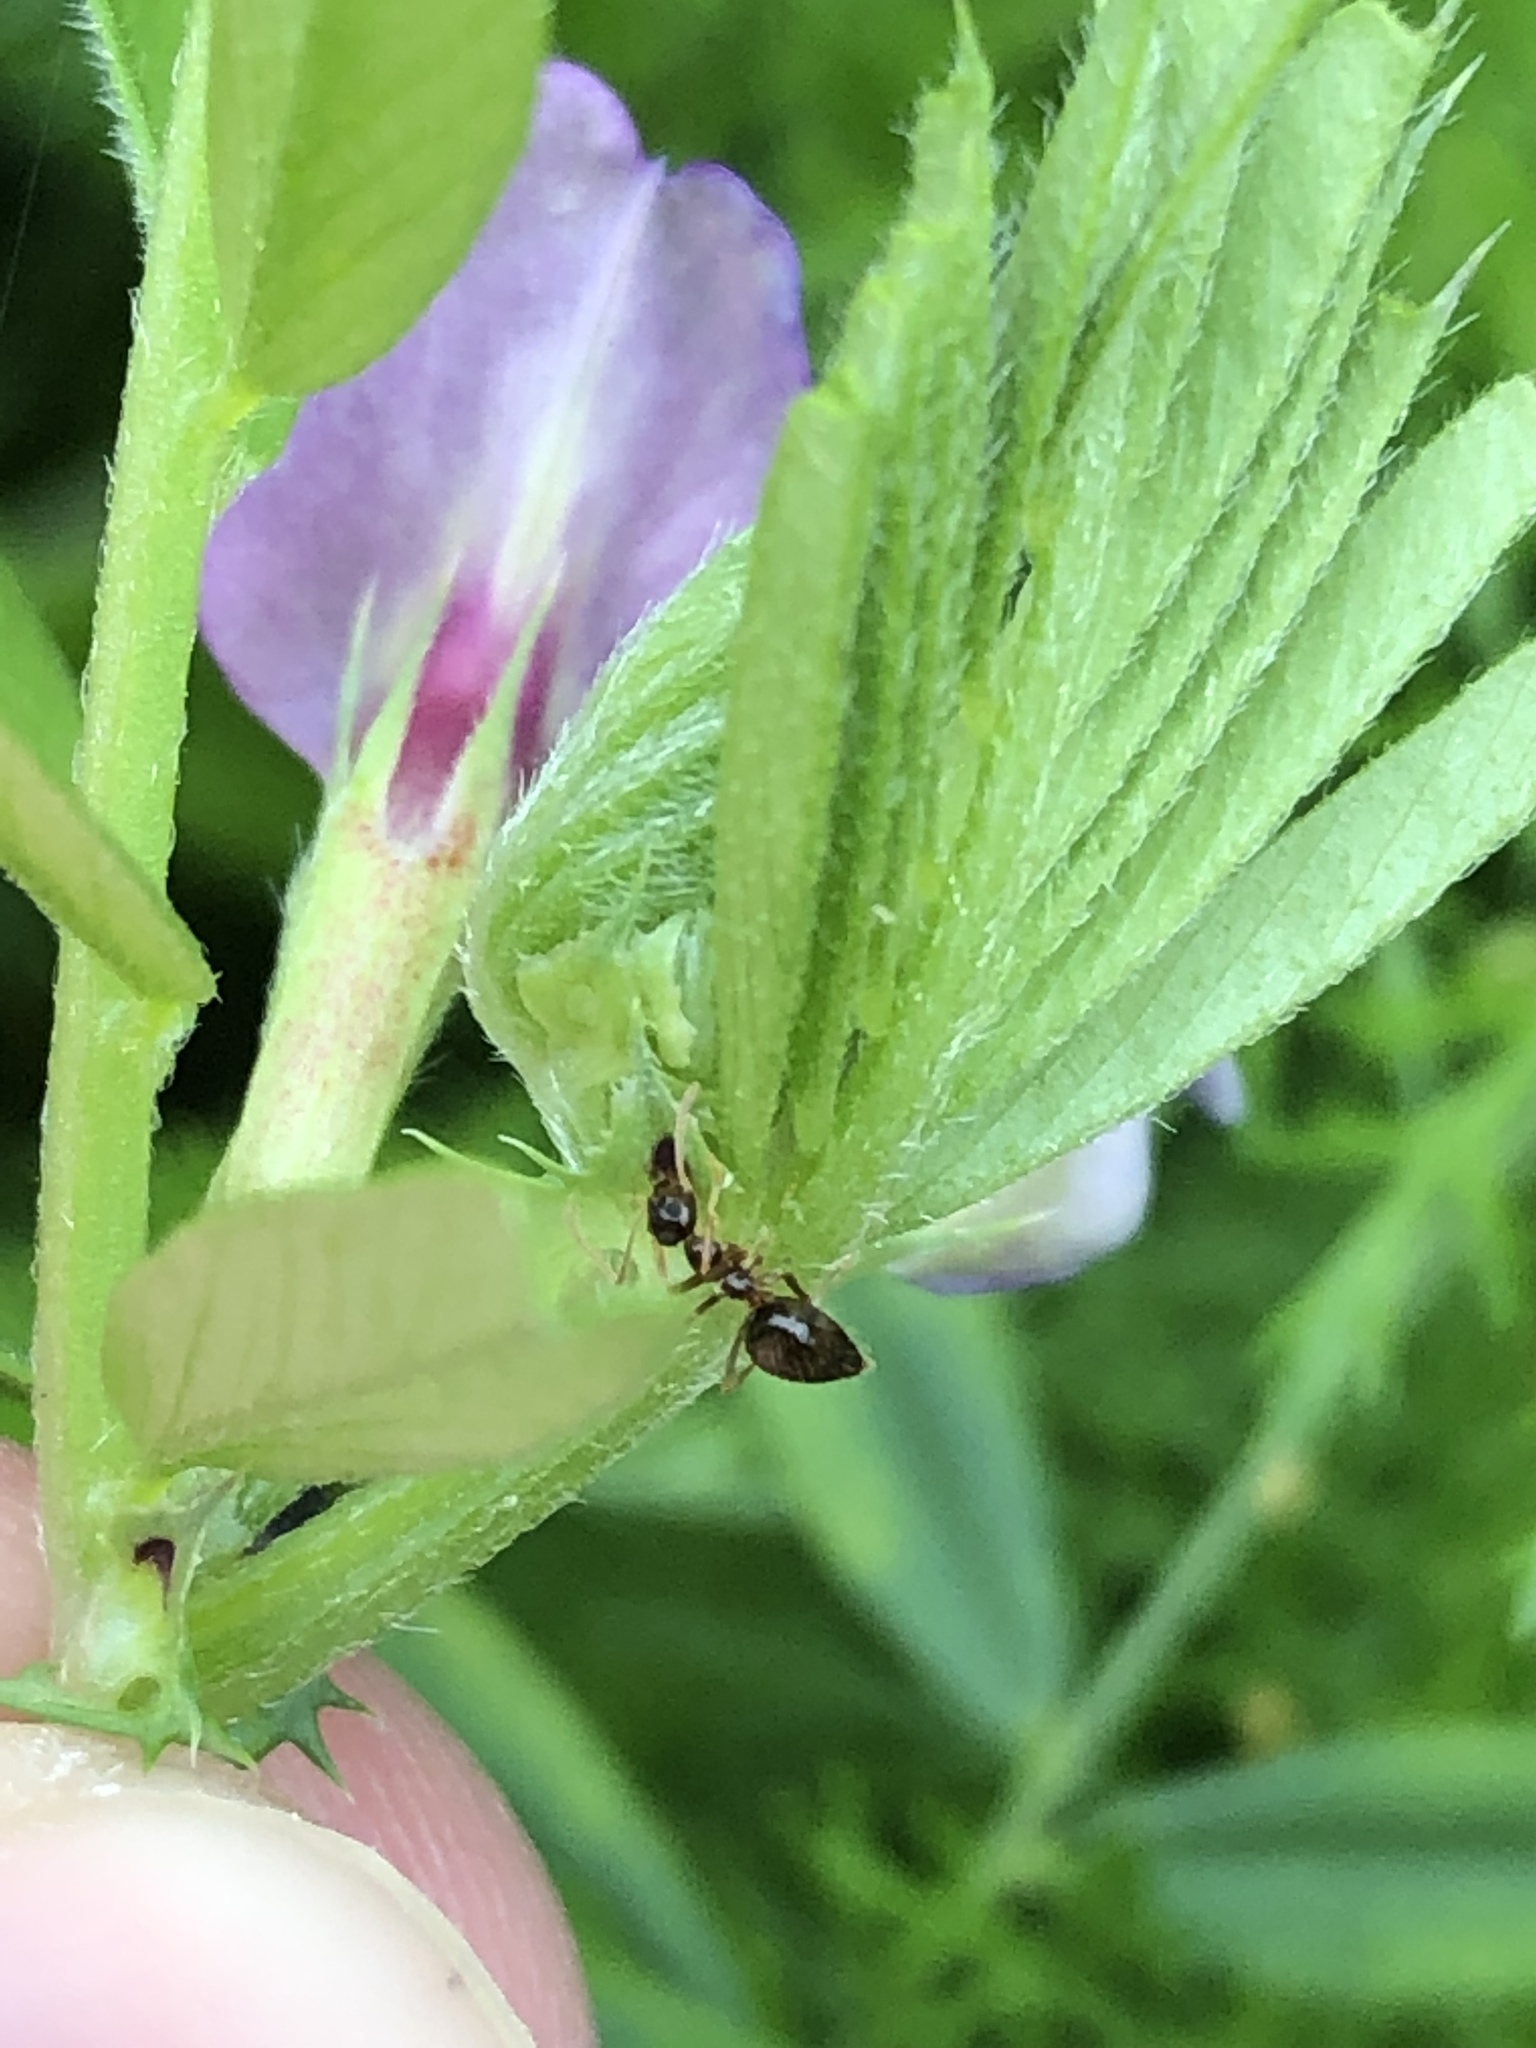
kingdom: Animalia
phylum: Arthropoda
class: Insecta
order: Hymenoptera
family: Formicidae
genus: Prenolepis
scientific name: Prenolepis imparis
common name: Small honey ant
